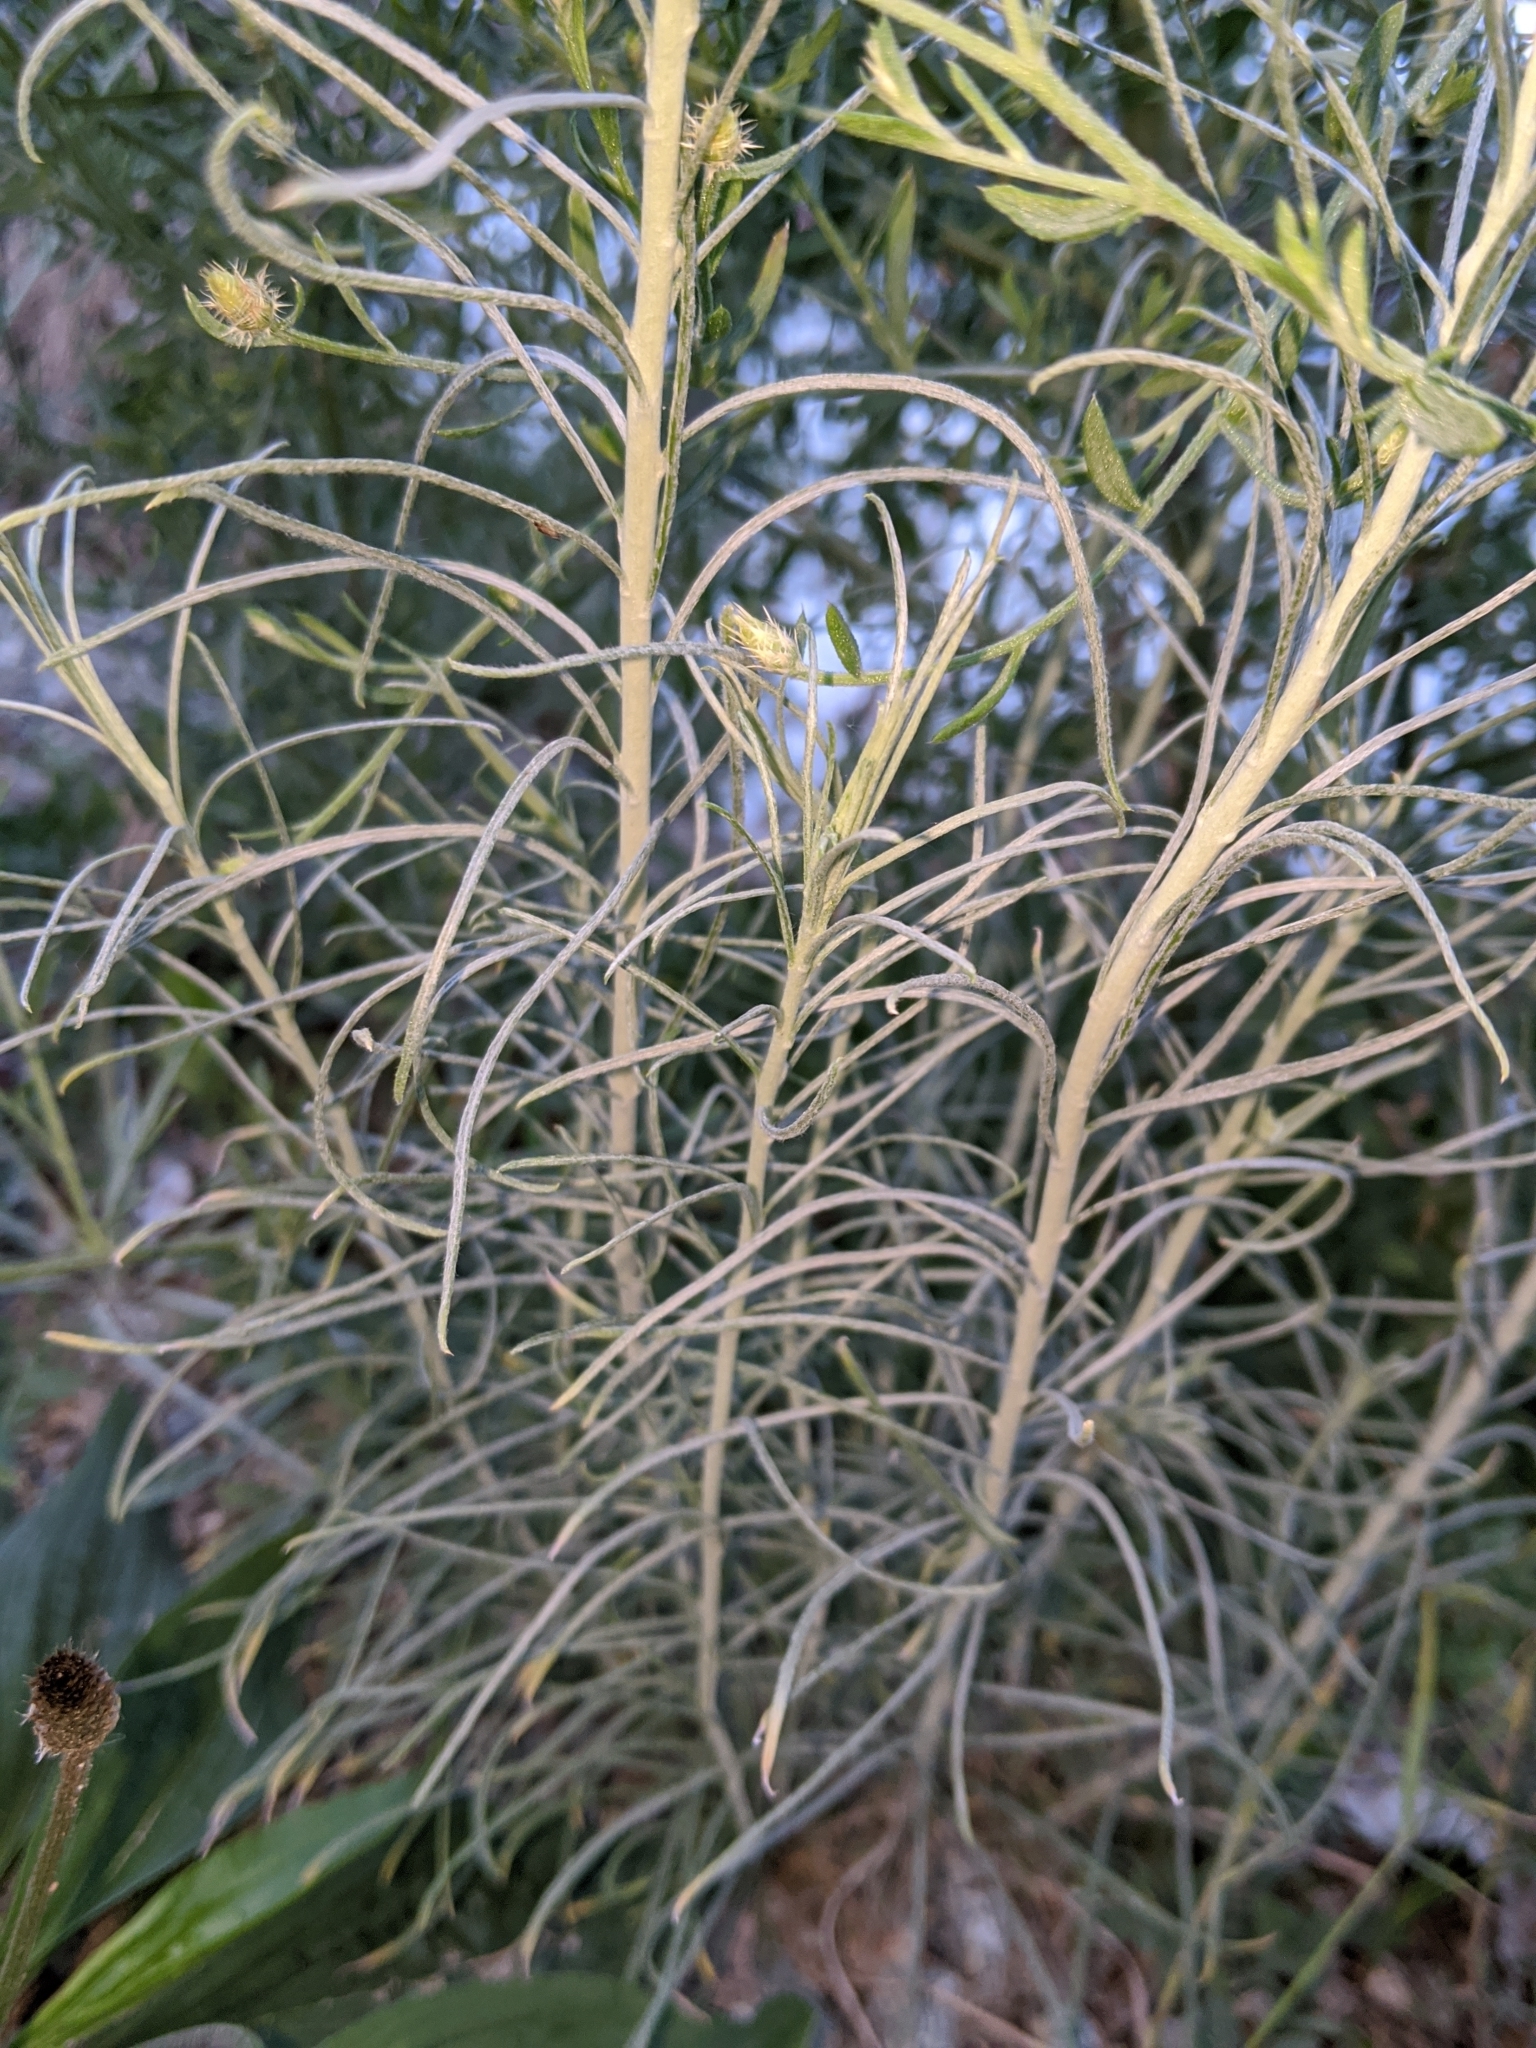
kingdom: Plantae
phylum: Tracheophyta
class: Magnoliopsida
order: Asterales
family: Asteraceae
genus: Ericameria
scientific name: Ericameria nauseosa
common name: Rubber rabbitbrush
